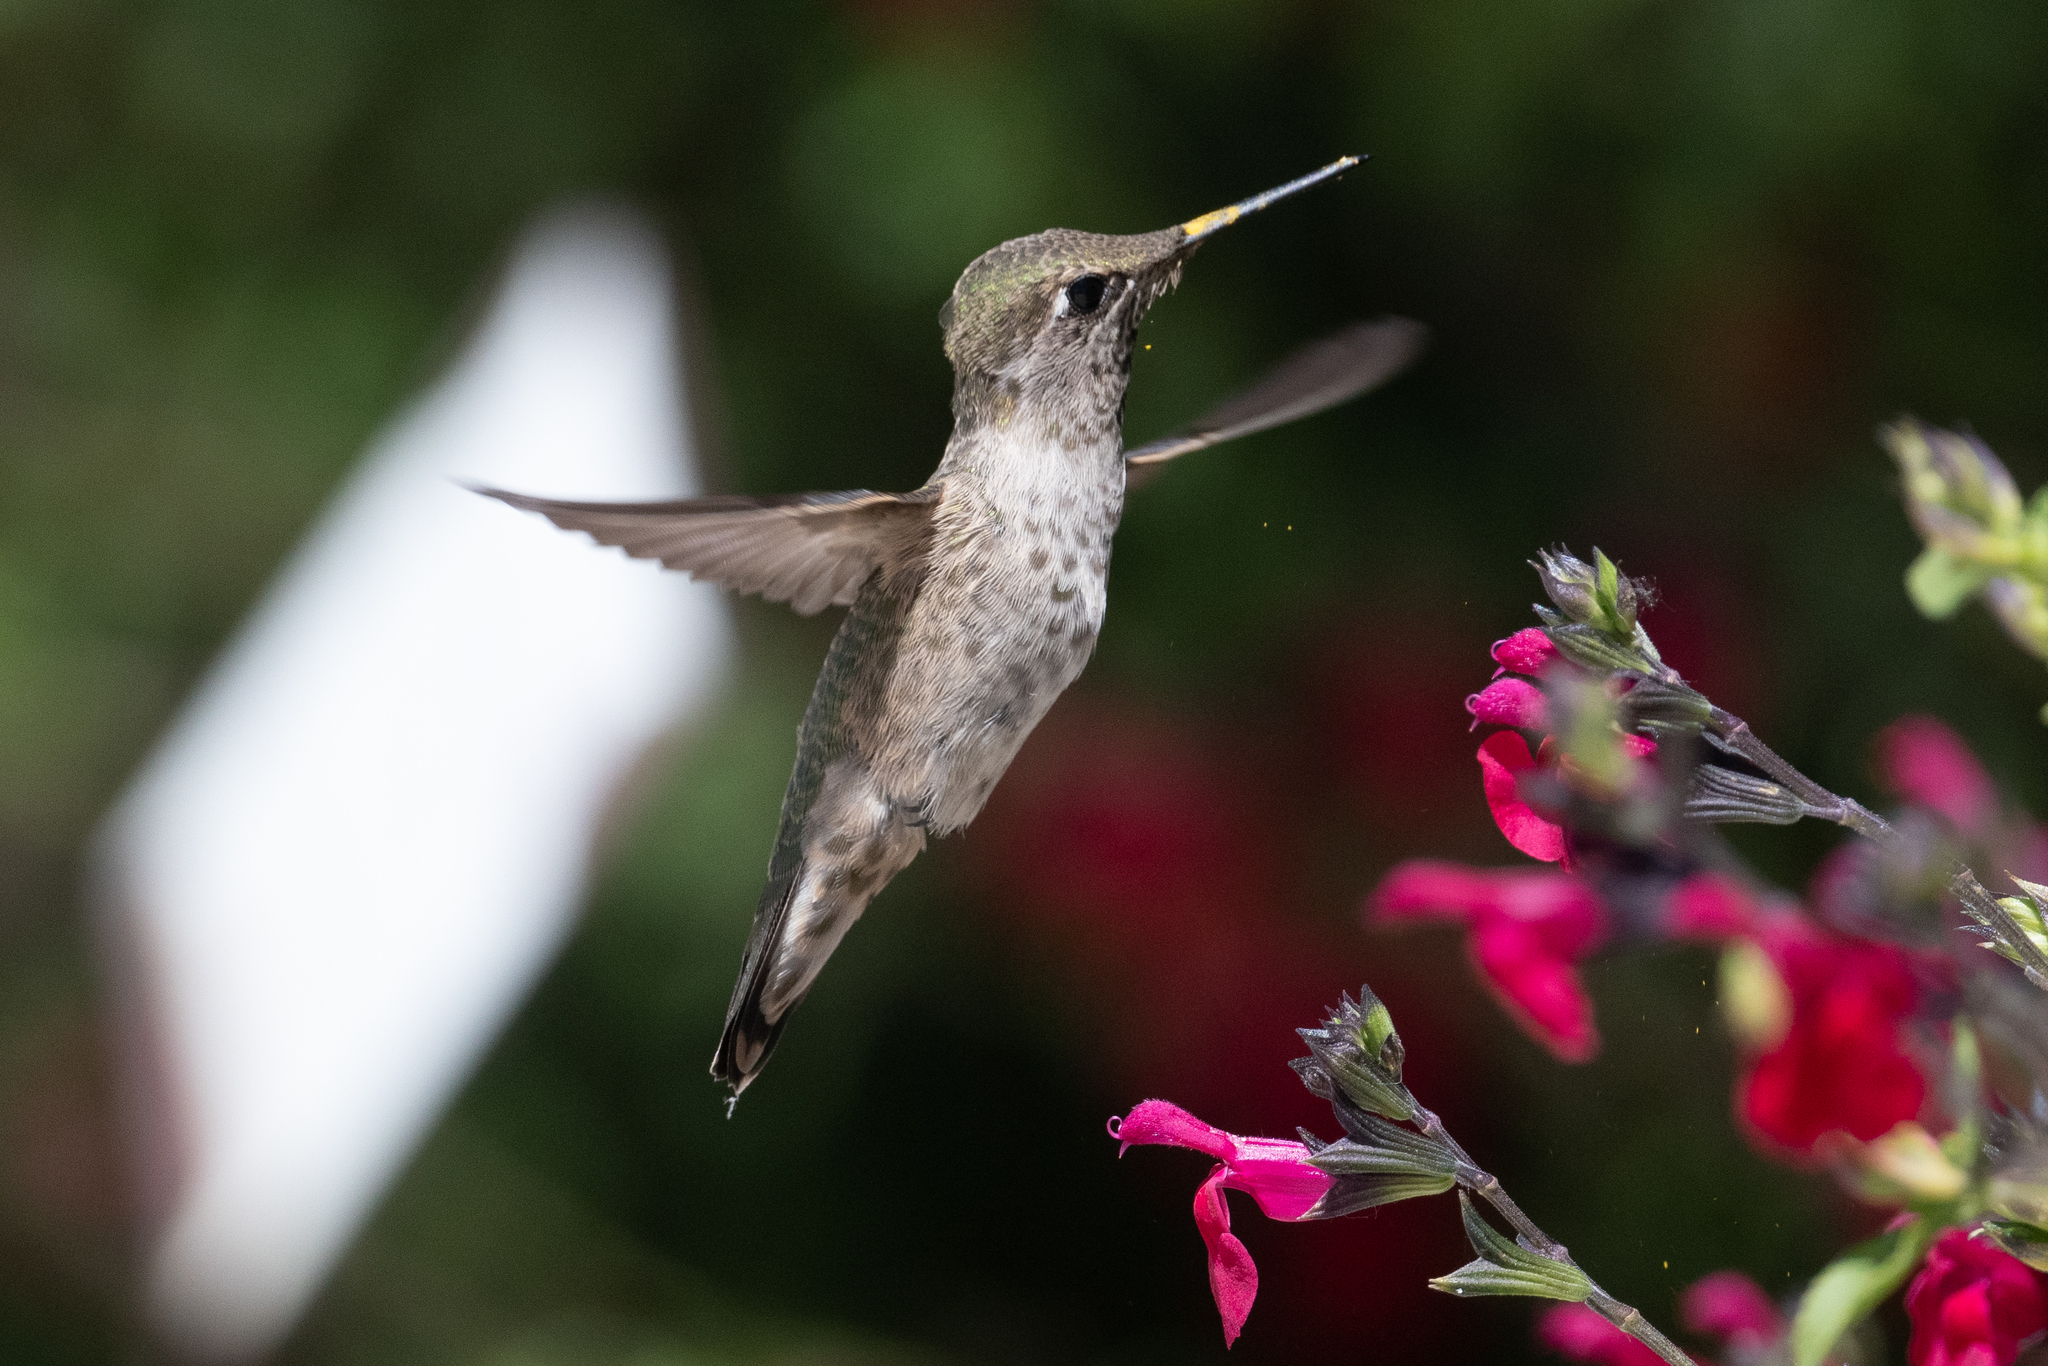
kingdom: Animalia
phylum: Chordata
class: Aves
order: Apodiformes
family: Trochilidae
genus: Calypte
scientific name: Calypte anna
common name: Anna's hummingbird
